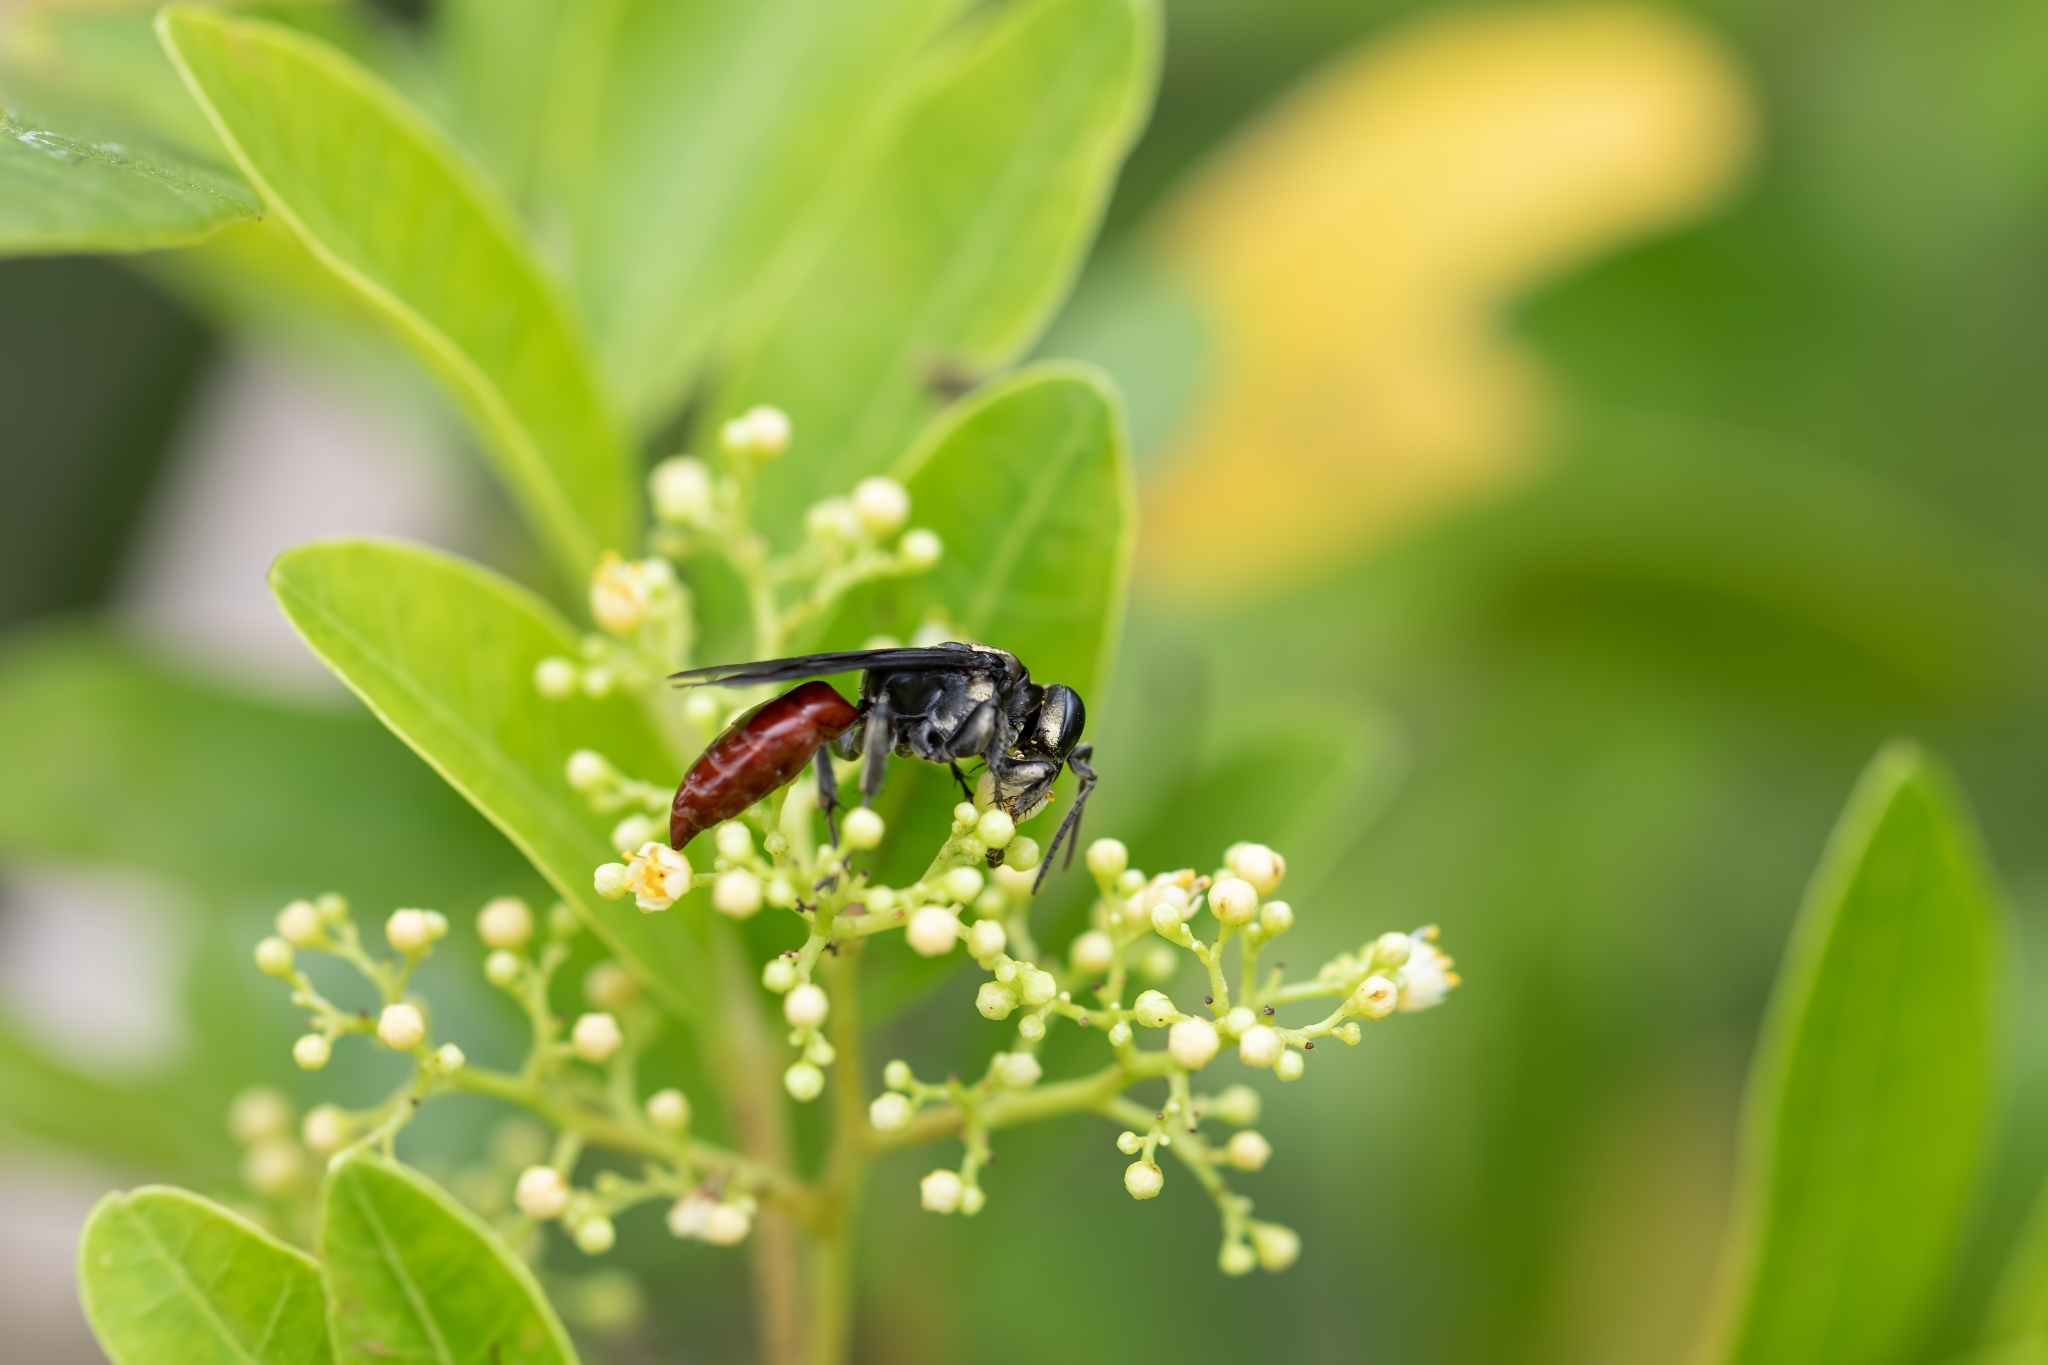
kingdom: Animalia
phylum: Arthropoda
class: Insecta
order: Hymenoptera
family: Crabronidae
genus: Larra
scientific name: Larra bicolor
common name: Wasp
